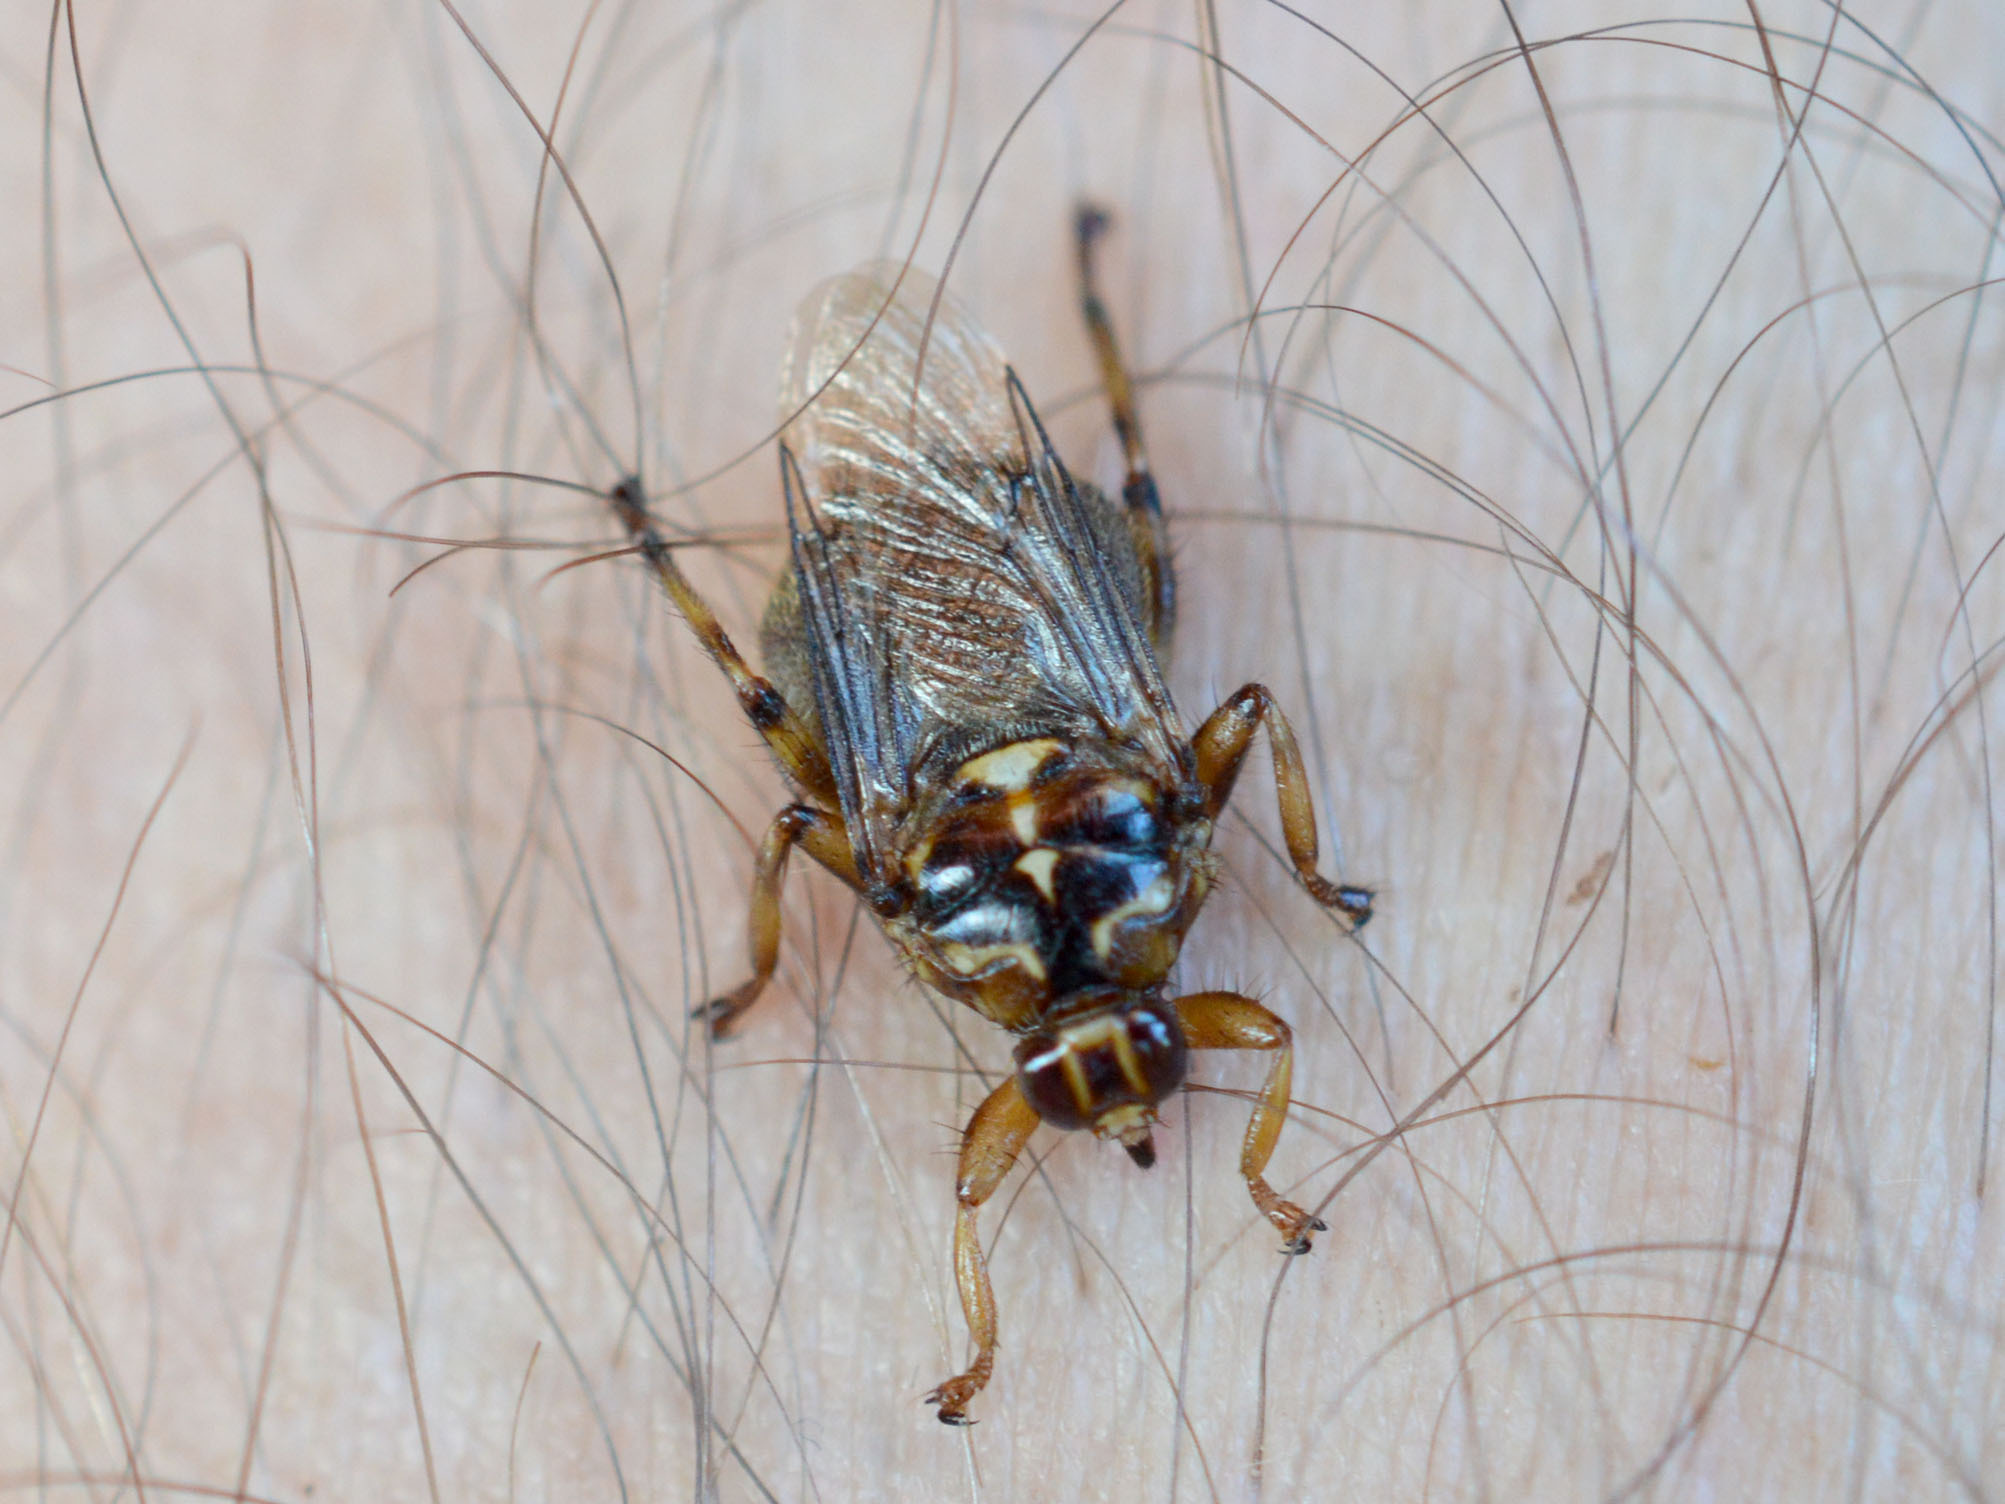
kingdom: Animalia
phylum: Arthropoda
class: Insecta
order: Diptera
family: Hippoboscidae
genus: Hippobosca
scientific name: Hippobosca equina
